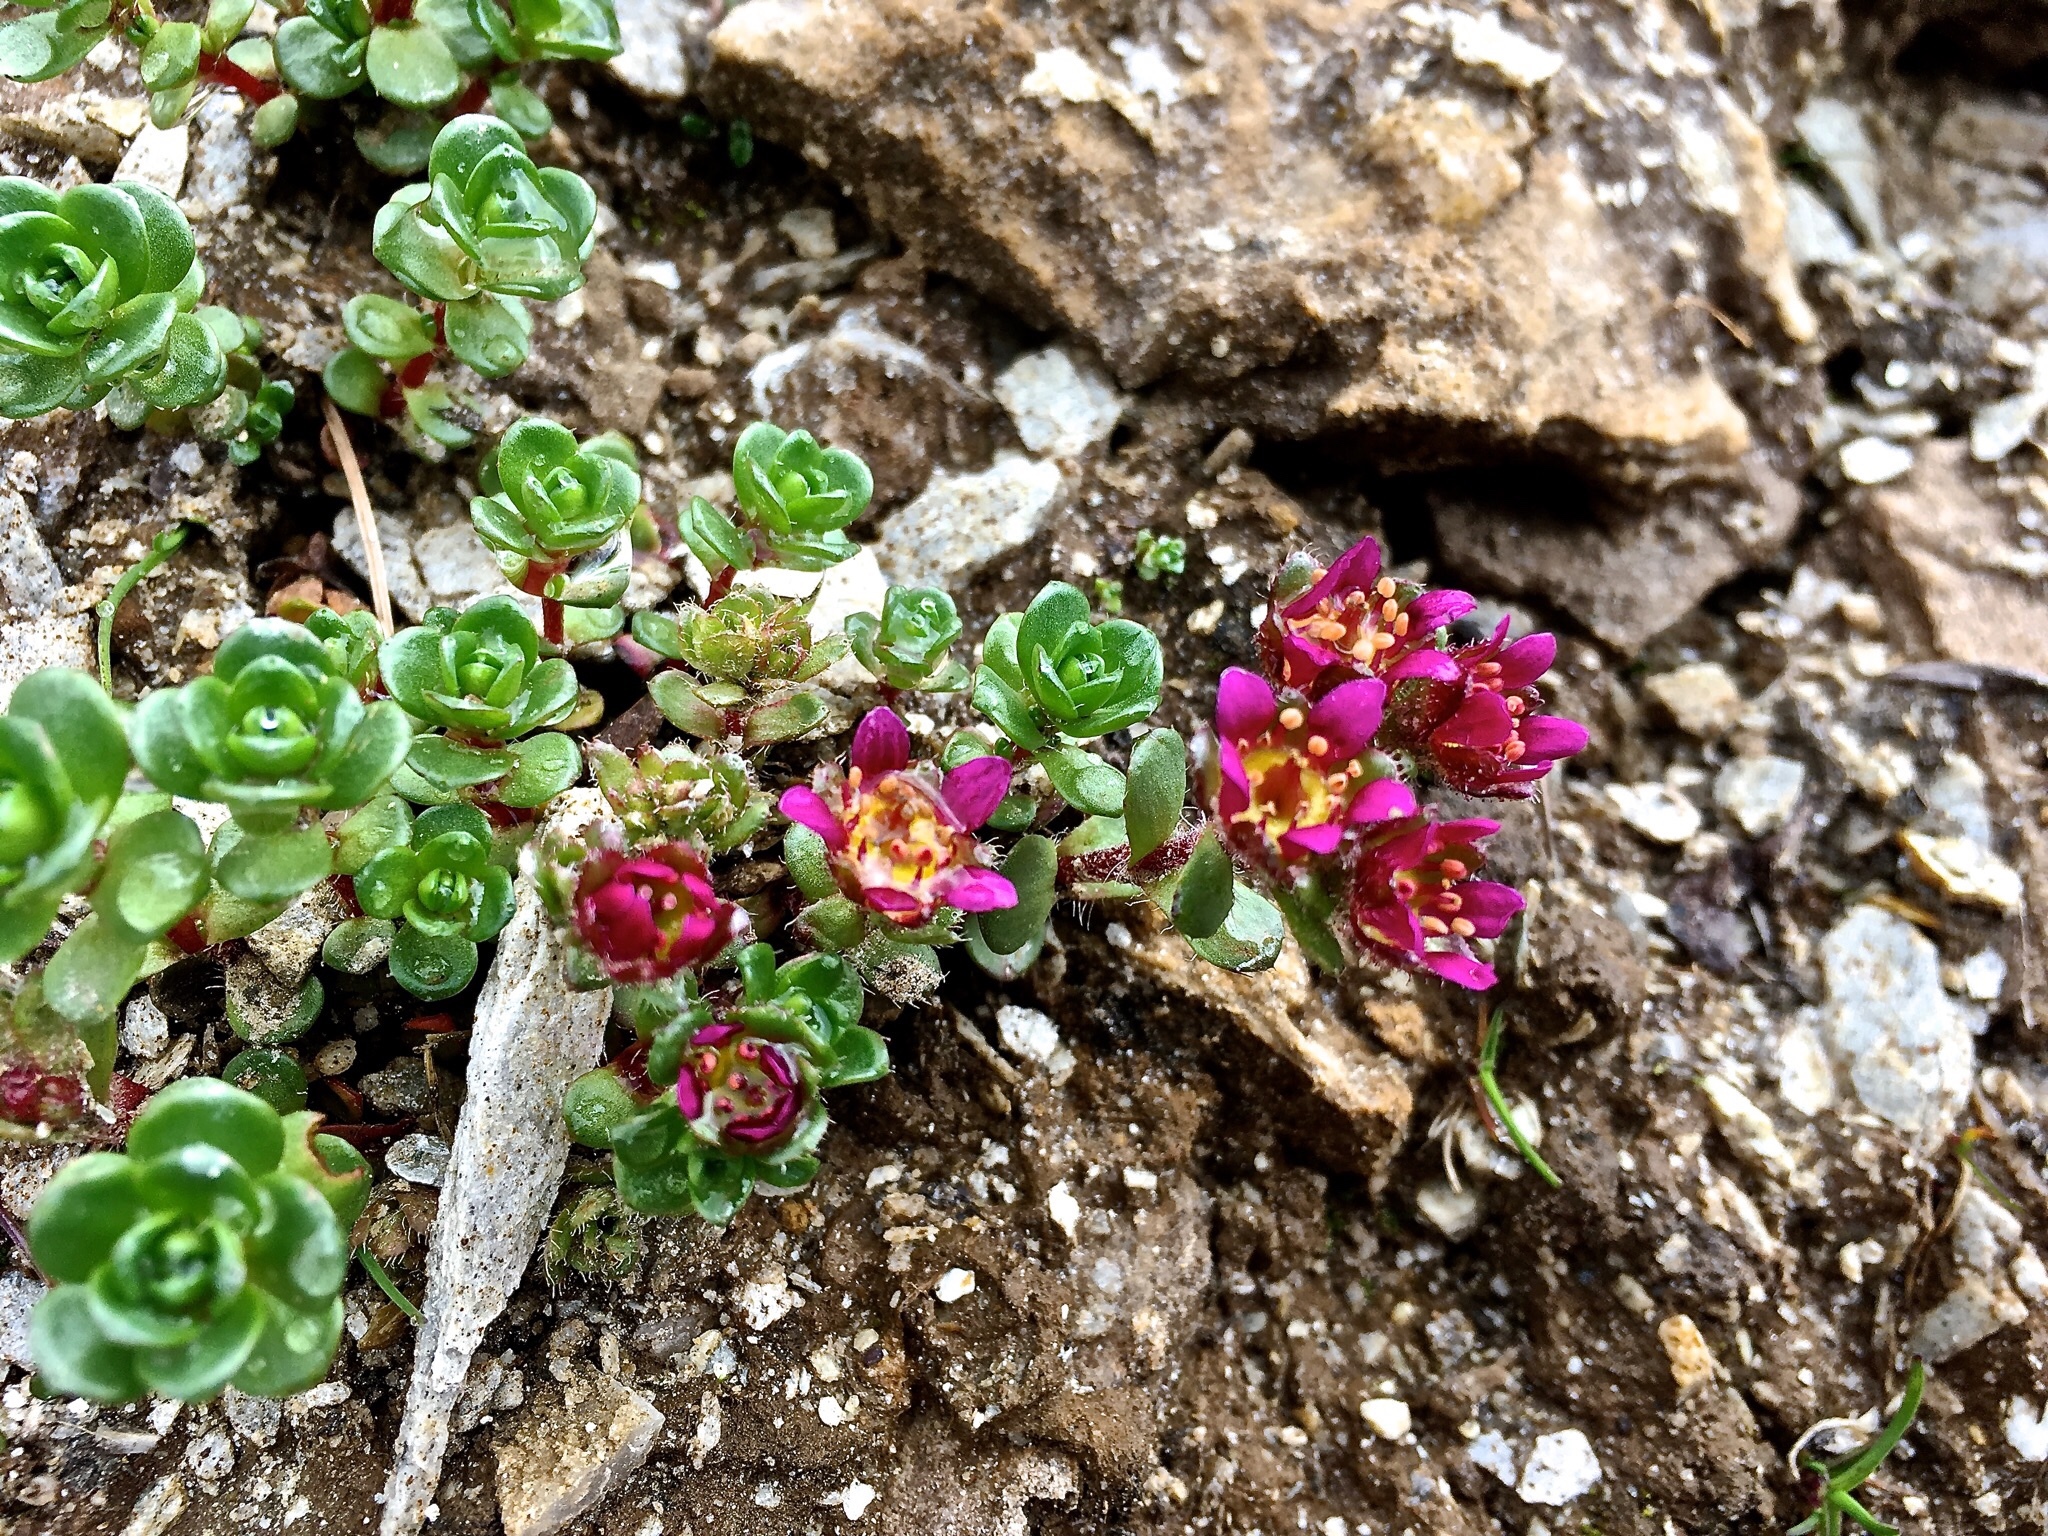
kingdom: Plantae
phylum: Tracheophyta
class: Magnoliopsida
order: Saxifragales
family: Saxifragaceae
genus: Saxifraga
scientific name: Saxifraga biflora
